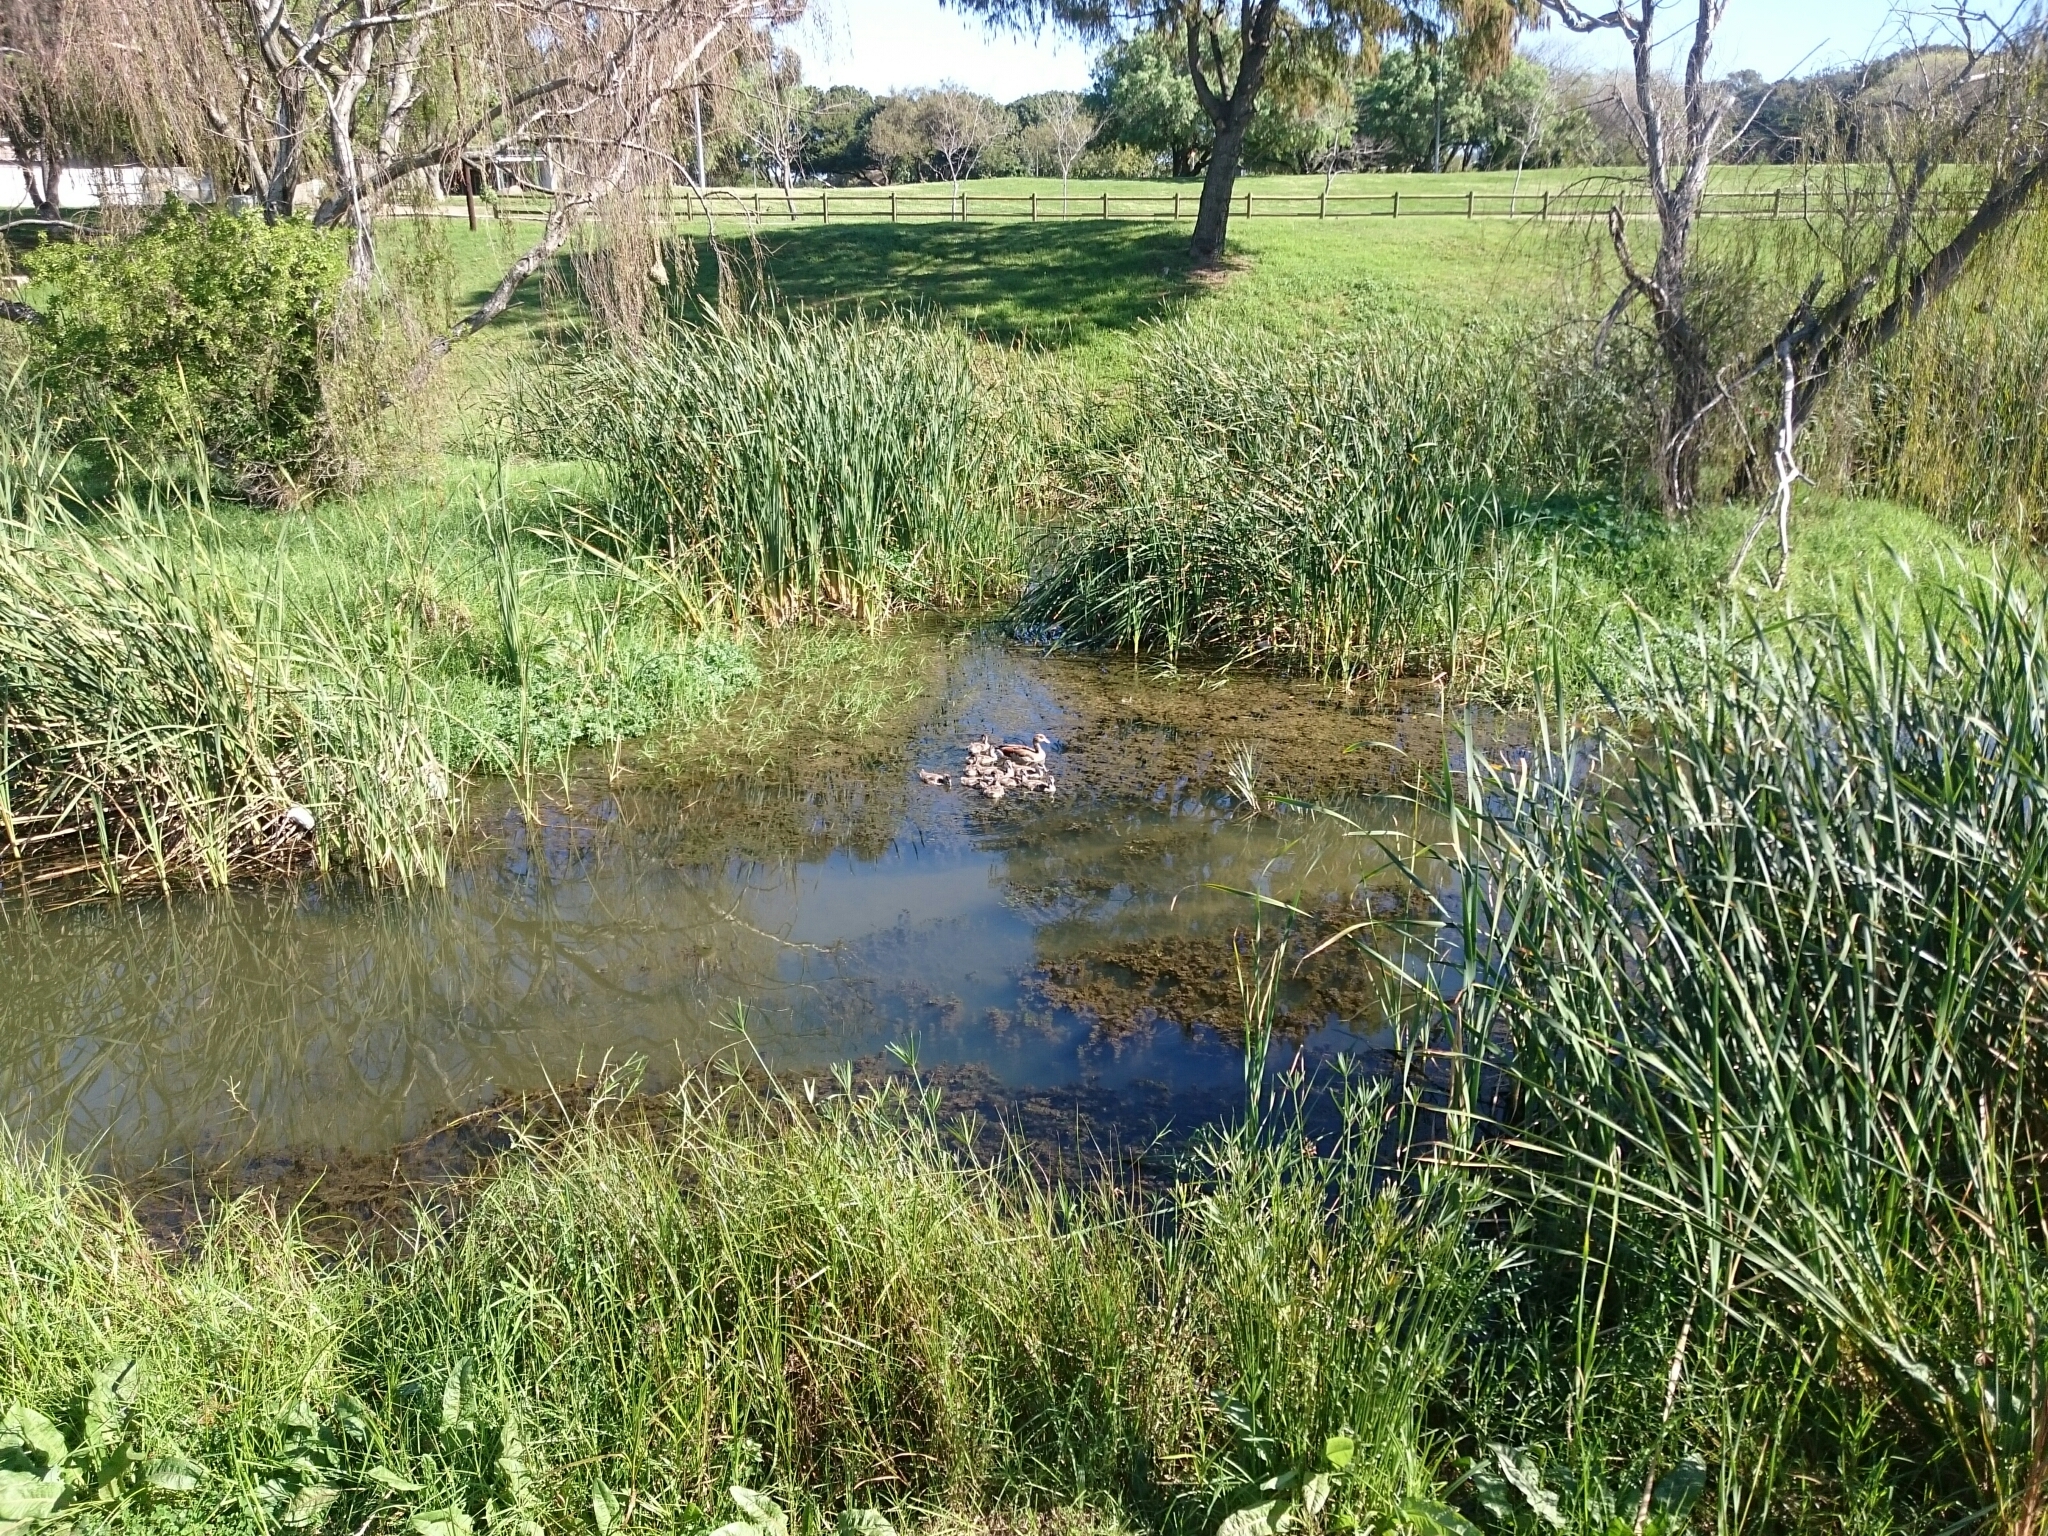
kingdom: Animalia
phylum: Chordata
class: Aves
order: Anseriformes
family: Anatidae
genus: Alopochen
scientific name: Alopochen aegyptiaca
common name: Egyptian goose
